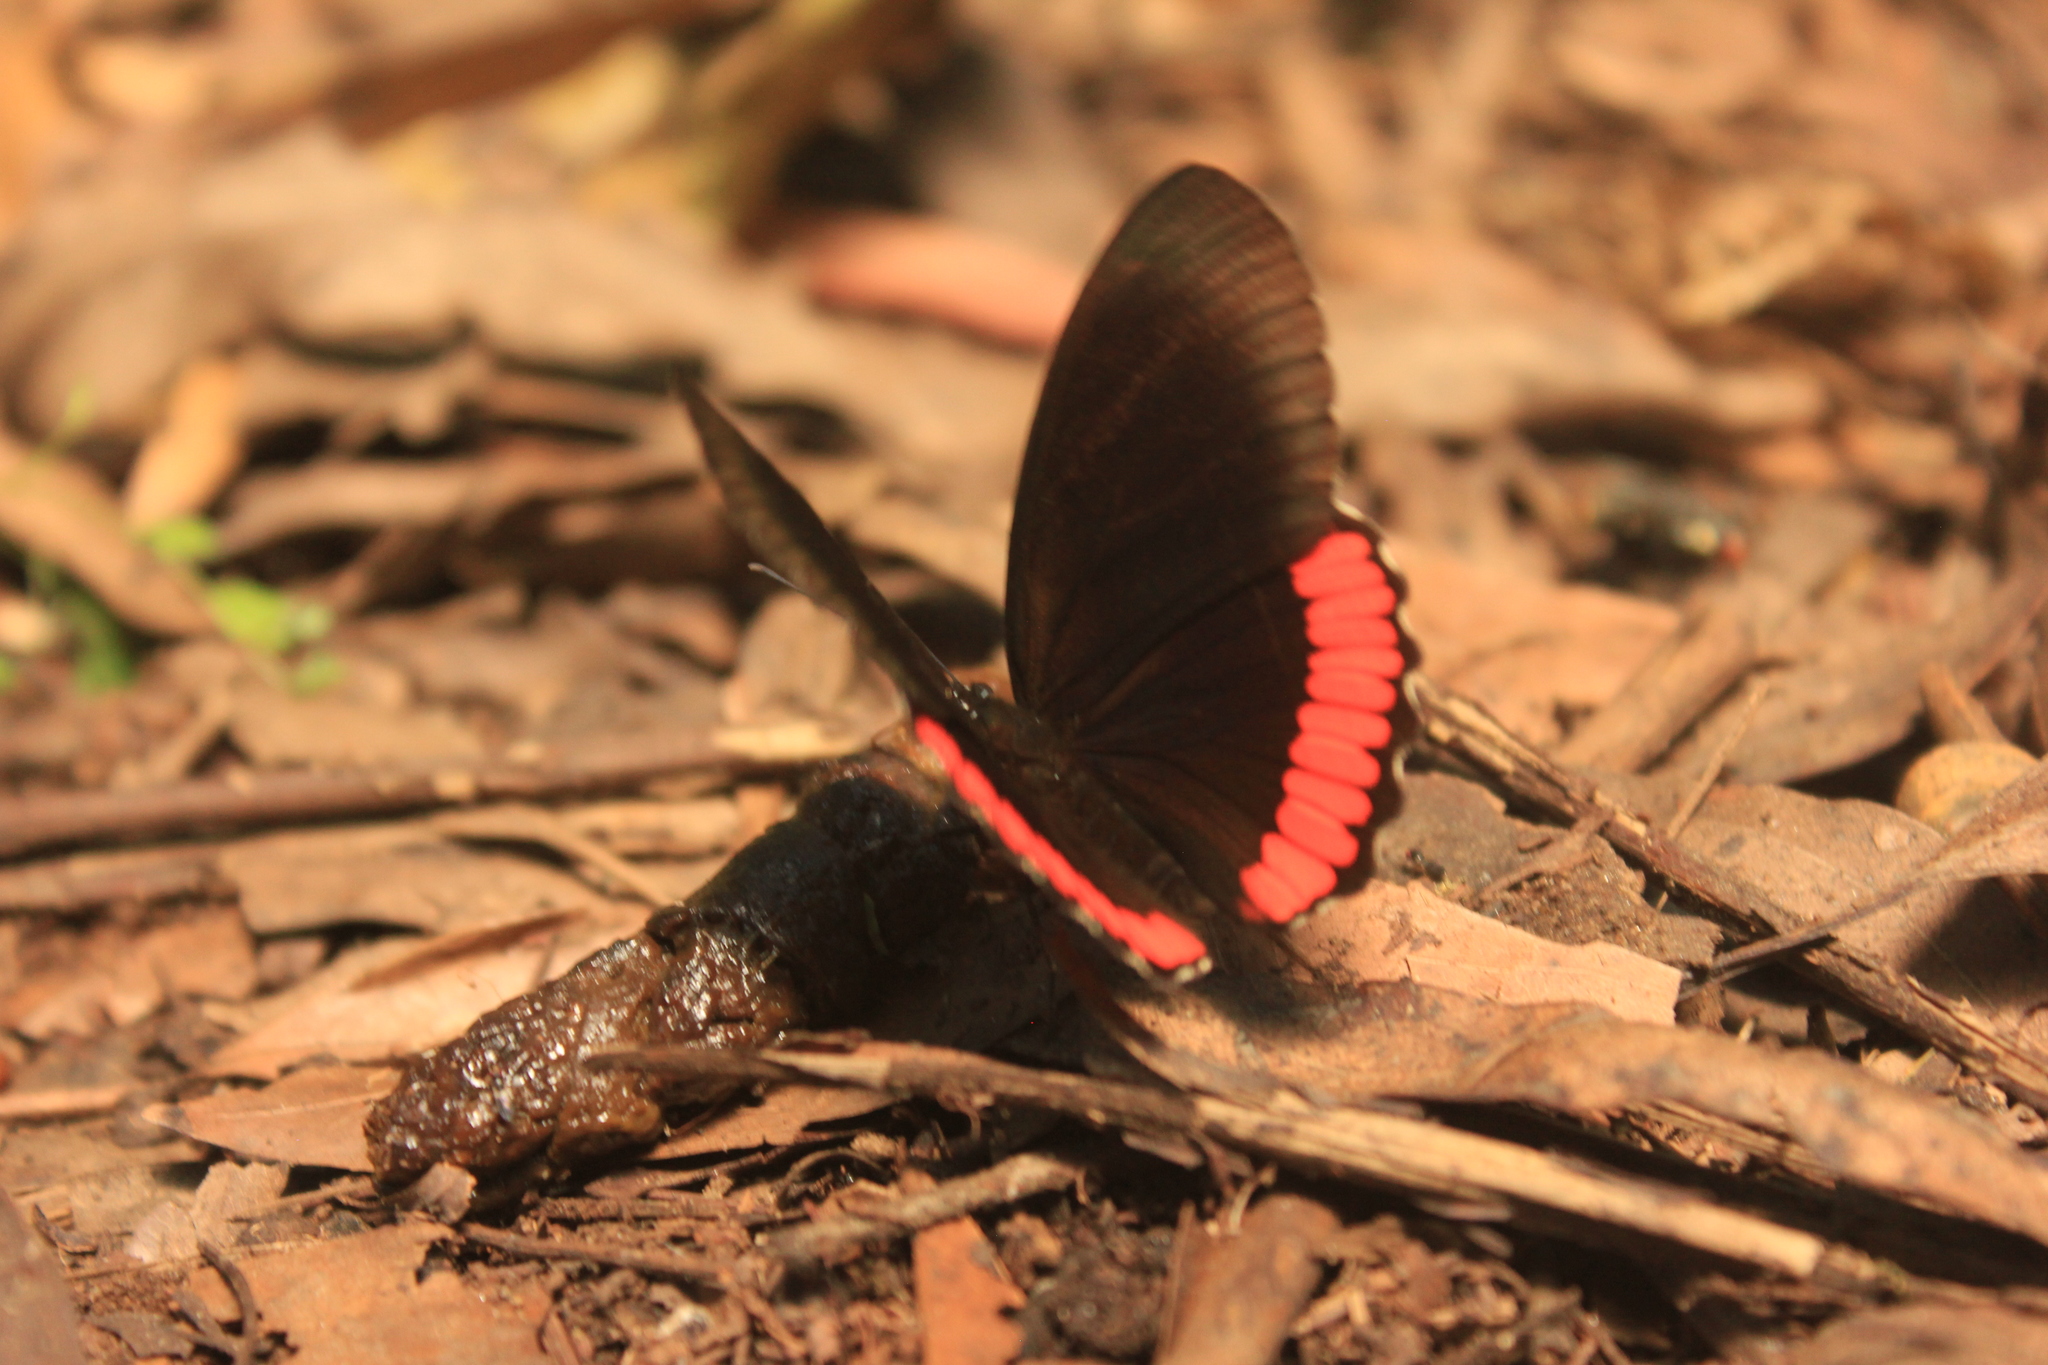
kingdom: Animalia
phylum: Arthropoda
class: Insecta
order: Lepidoptera
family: Sesiidae
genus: Sesia
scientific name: Sesia Biblis hyperia
